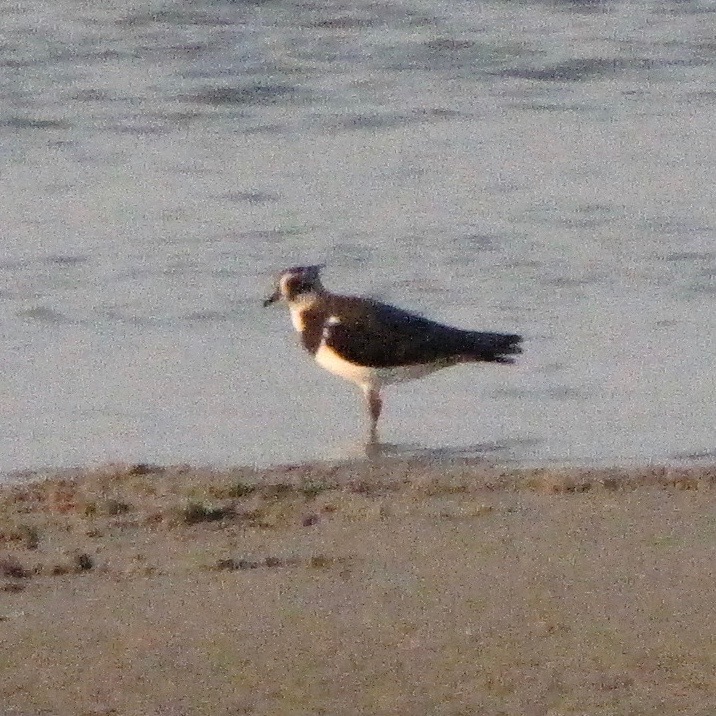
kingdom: Animalia
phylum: Chordata
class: Aves
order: Charadriiformes
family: Charadriidae
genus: Vanellus
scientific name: Vanellus vanellus
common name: Northern lapwing
